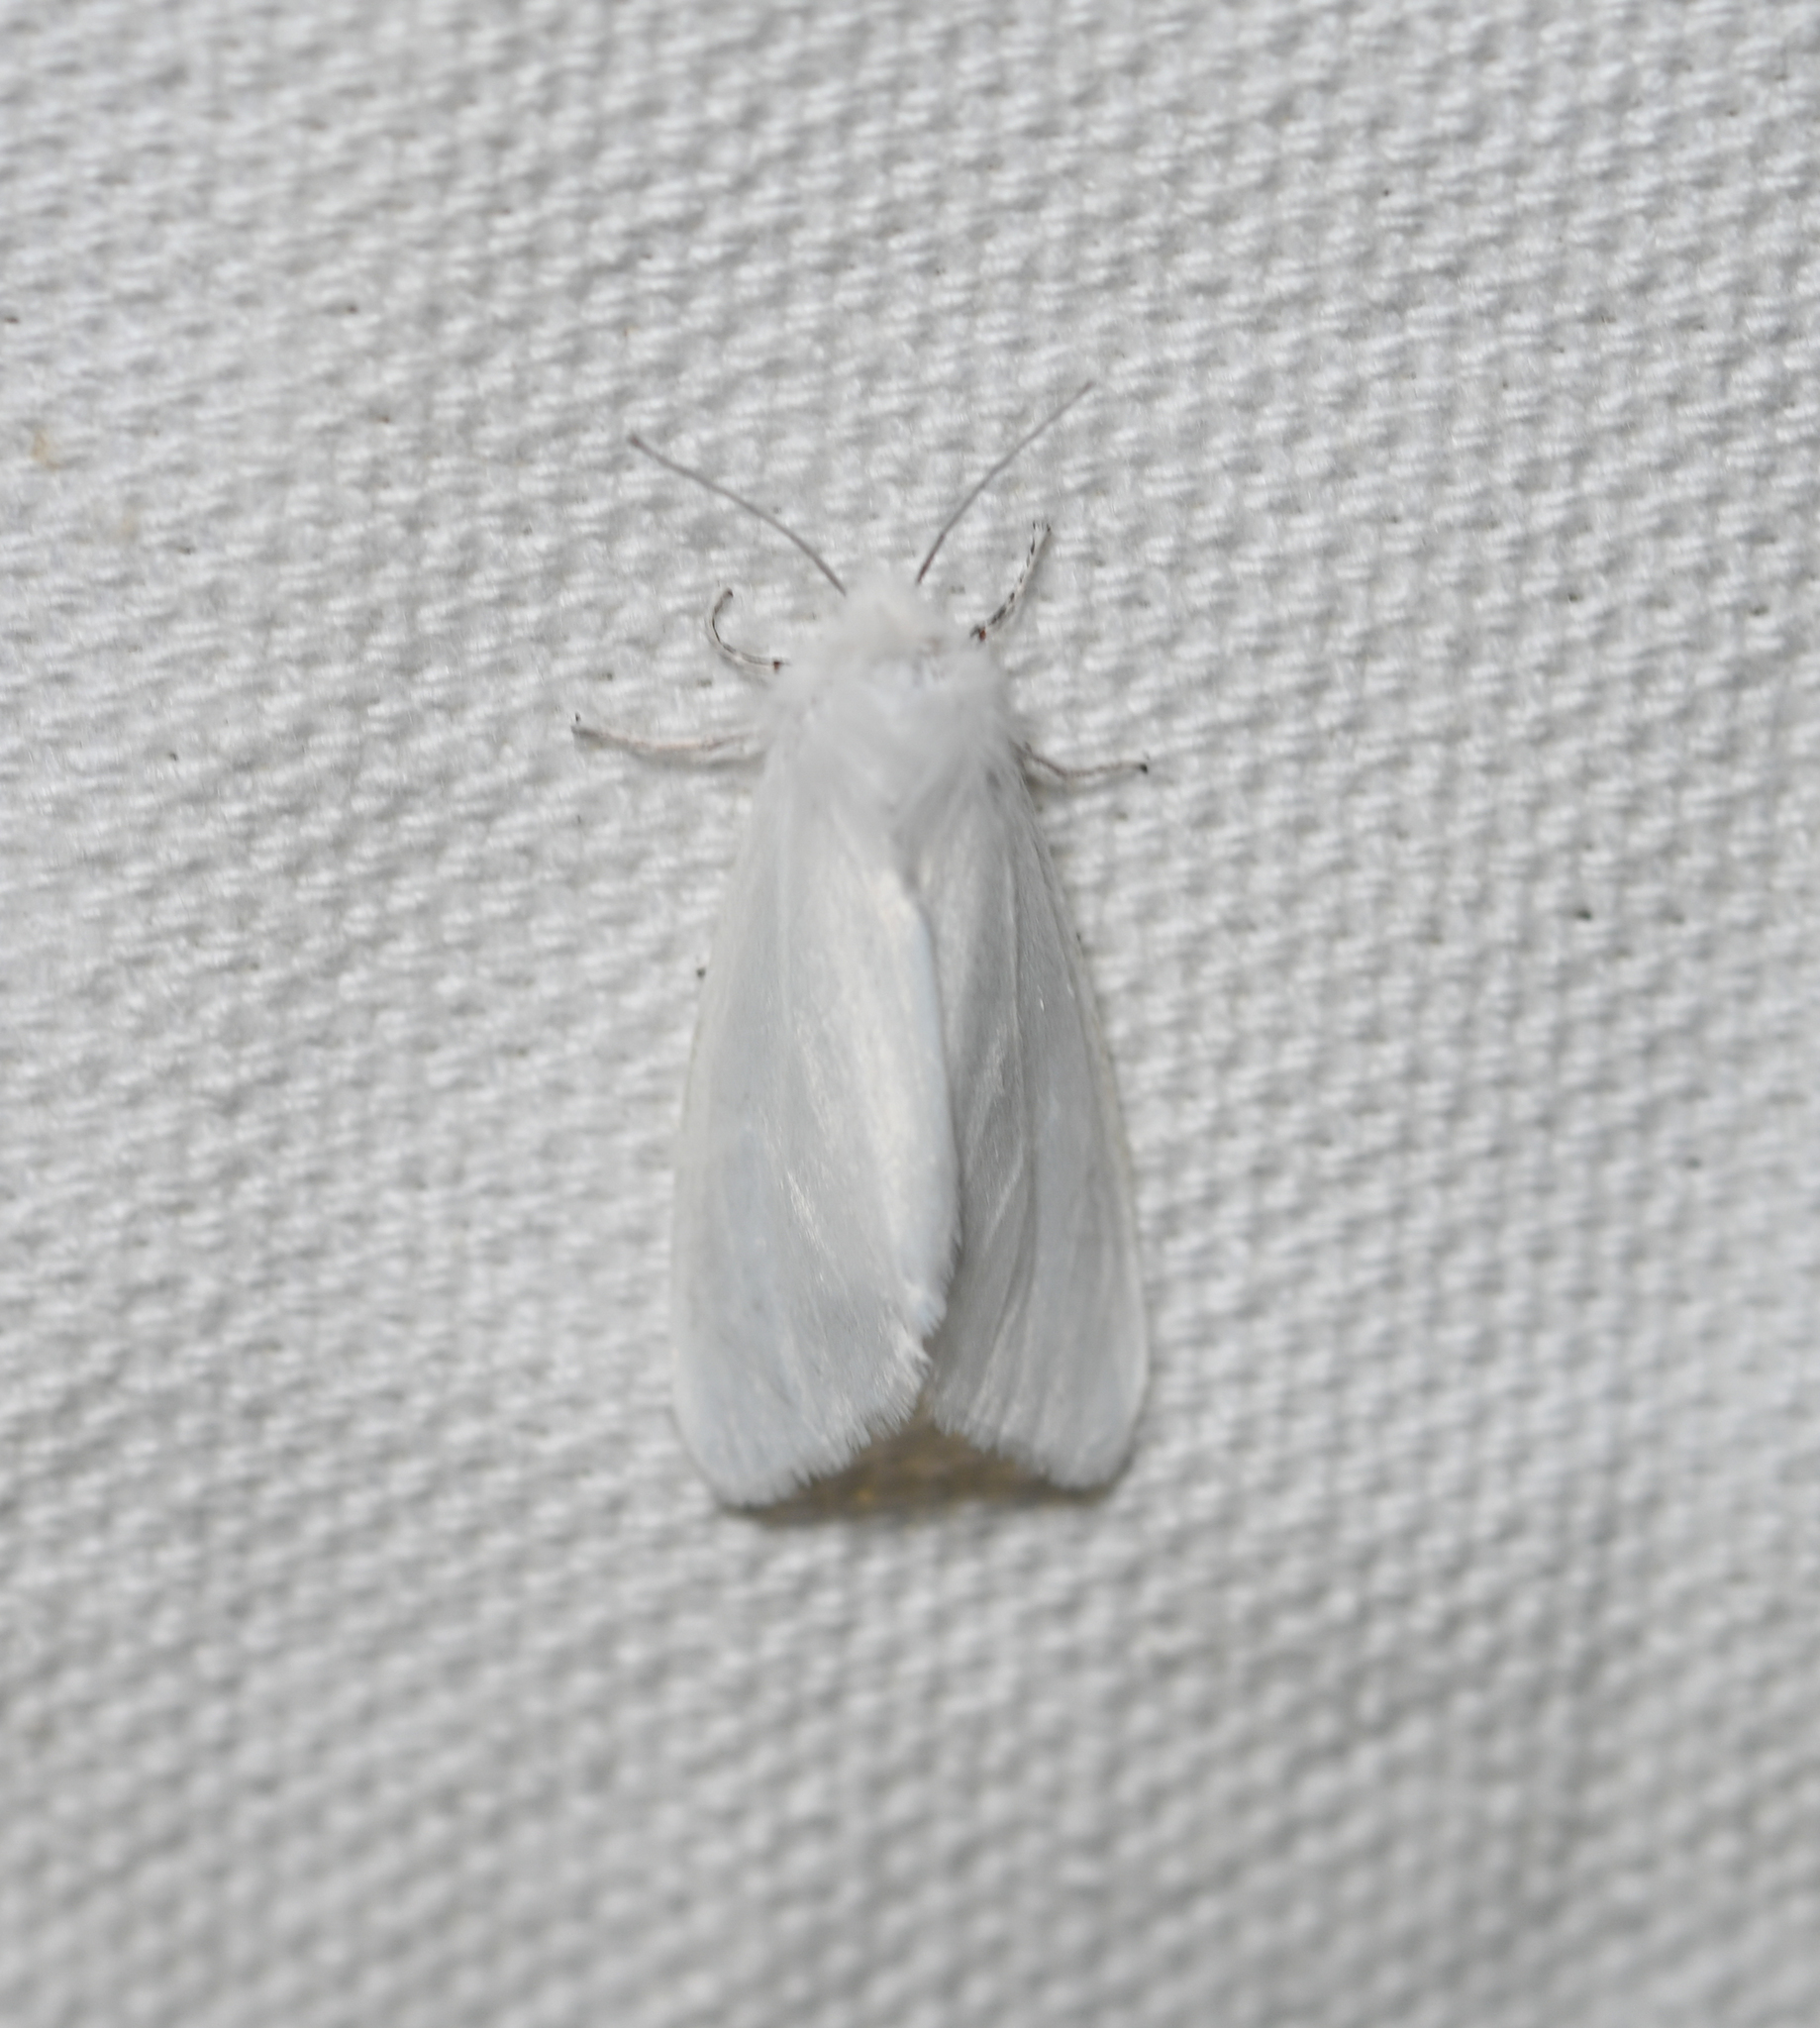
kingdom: Animalia
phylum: Arthropoda
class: Insecta
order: Lepidoptera
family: Erebidae
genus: Hyphantria
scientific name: Hyphantria cunea
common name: American white moth
